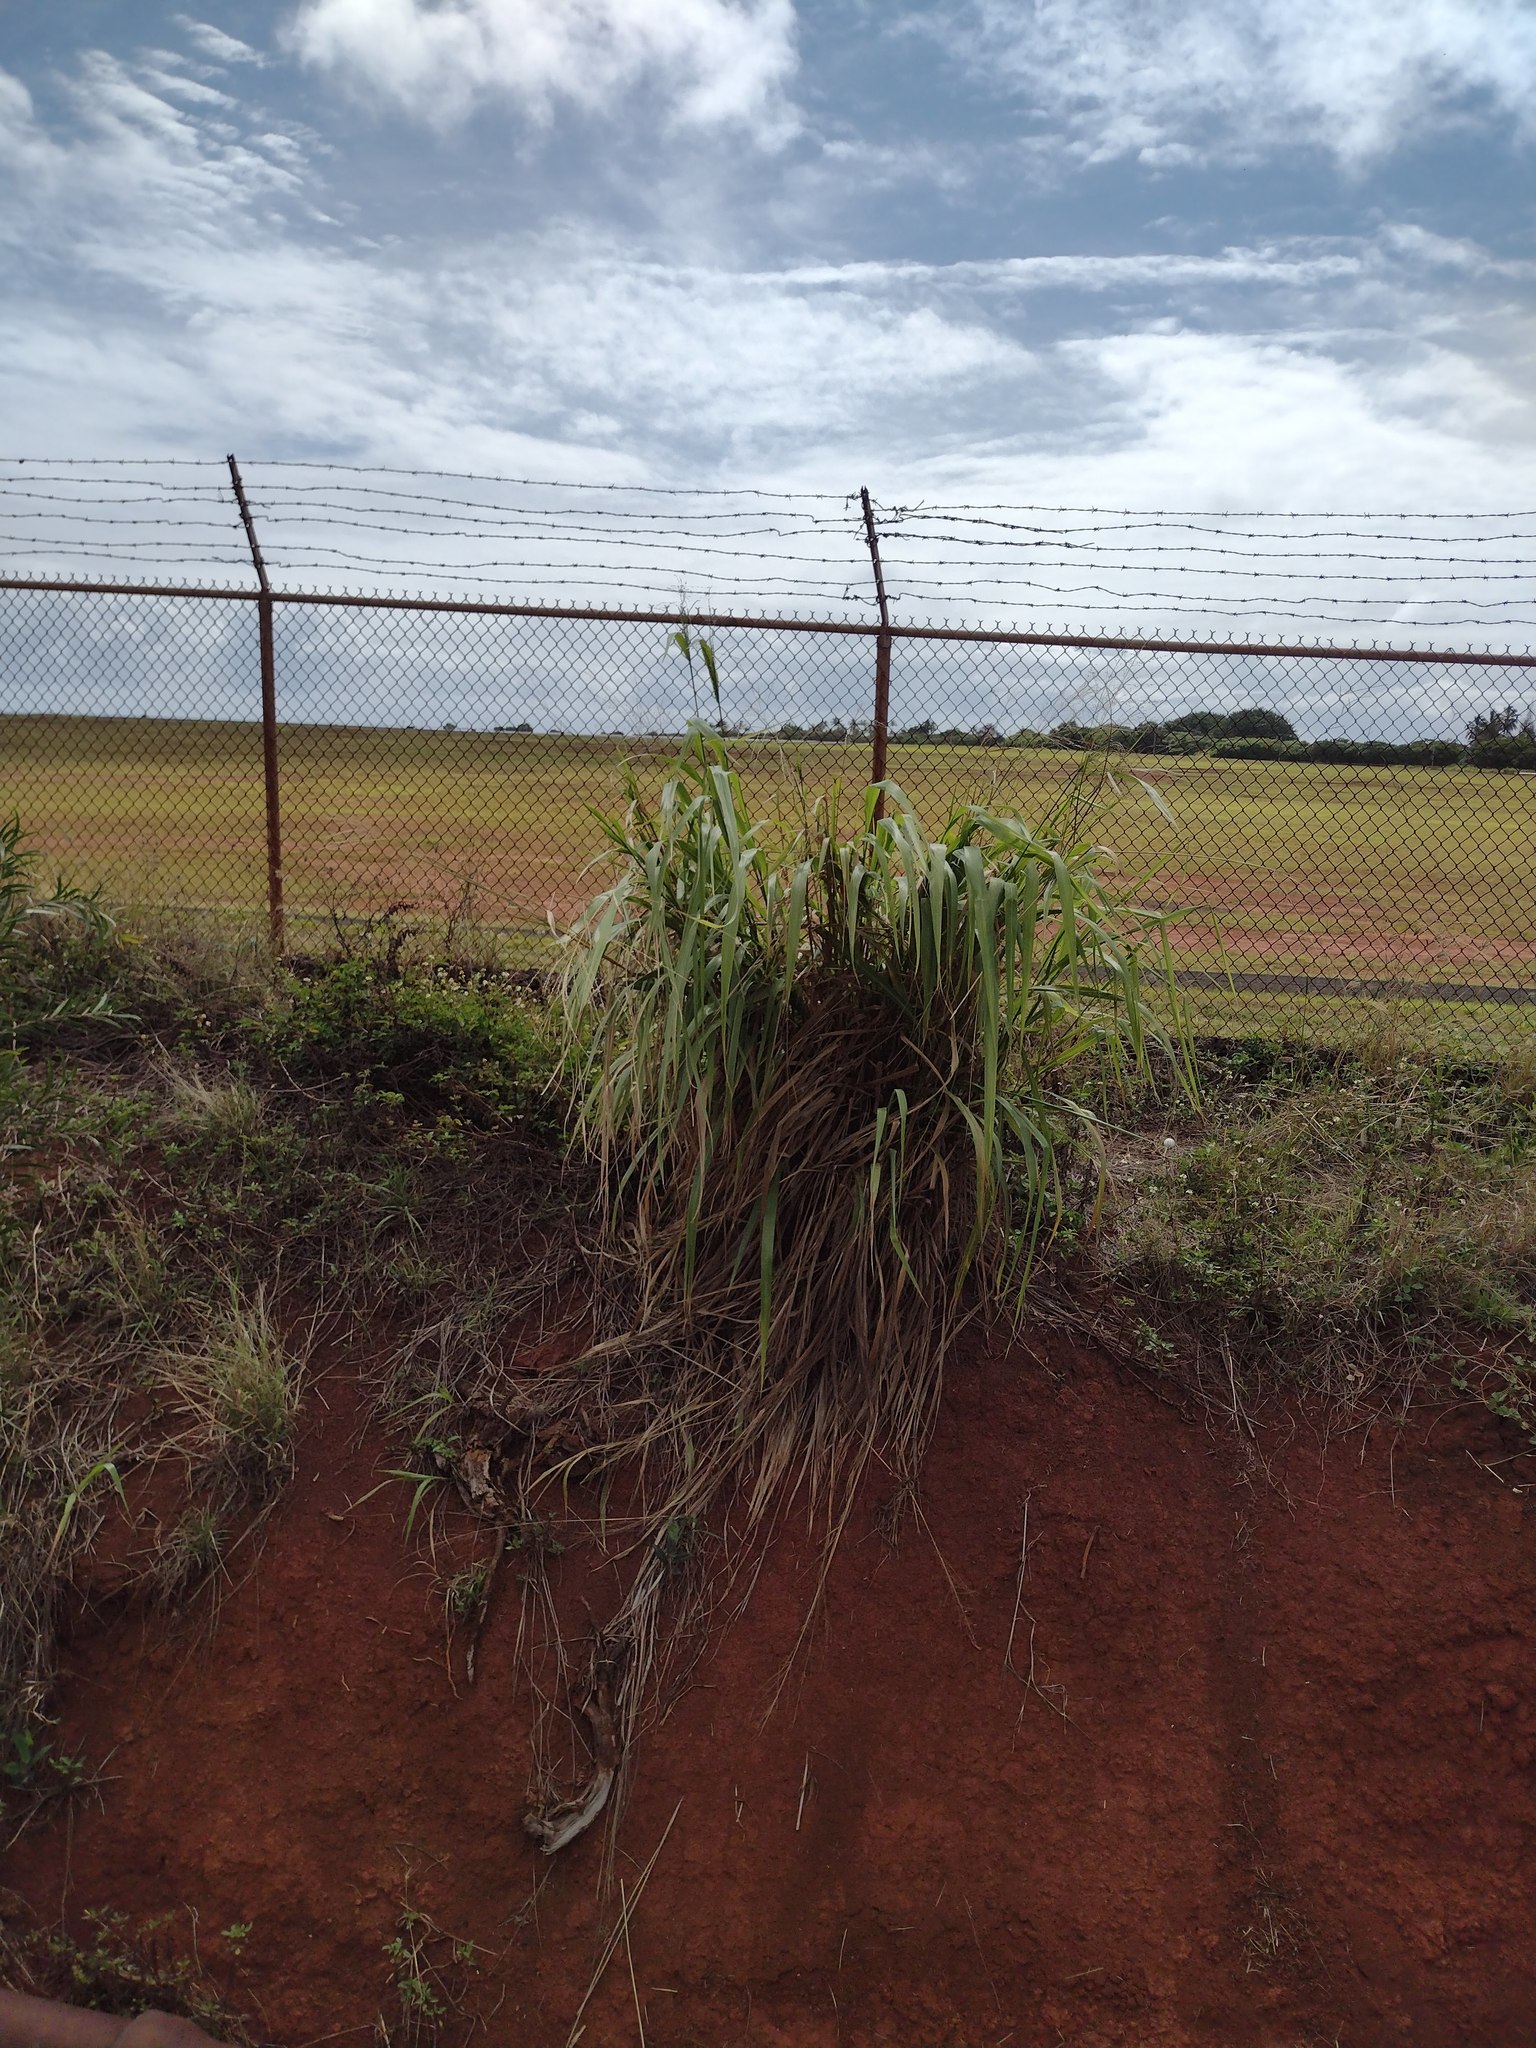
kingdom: Plantae
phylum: Tracheophyta
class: Liliopsida
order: Poales
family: Poaceae
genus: Megathyrsus
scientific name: Megathyrsus maximus
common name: Guineagrass
